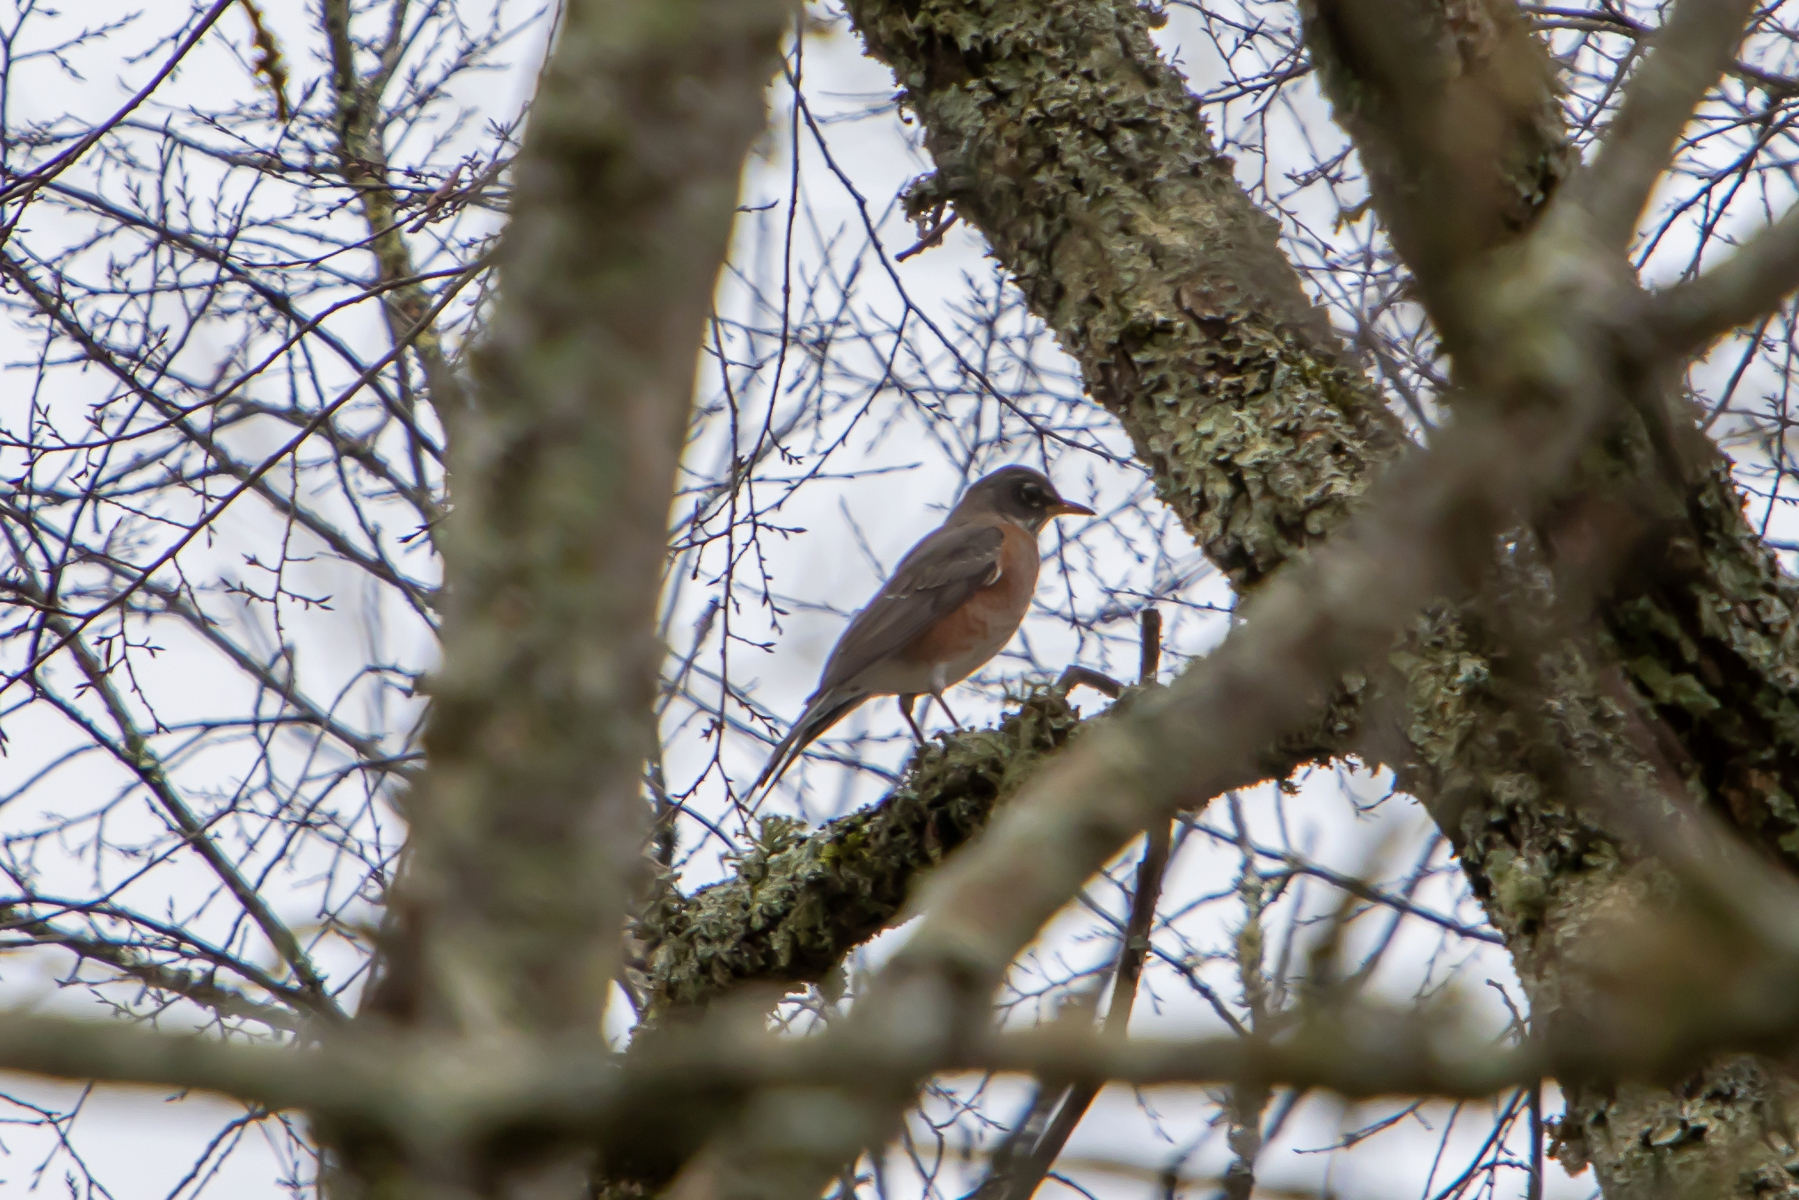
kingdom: Animalia
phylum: Chordata
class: Aves
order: Passeriformes
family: Turdidae
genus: Turdus
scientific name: Turdus migratorius
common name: American robin
